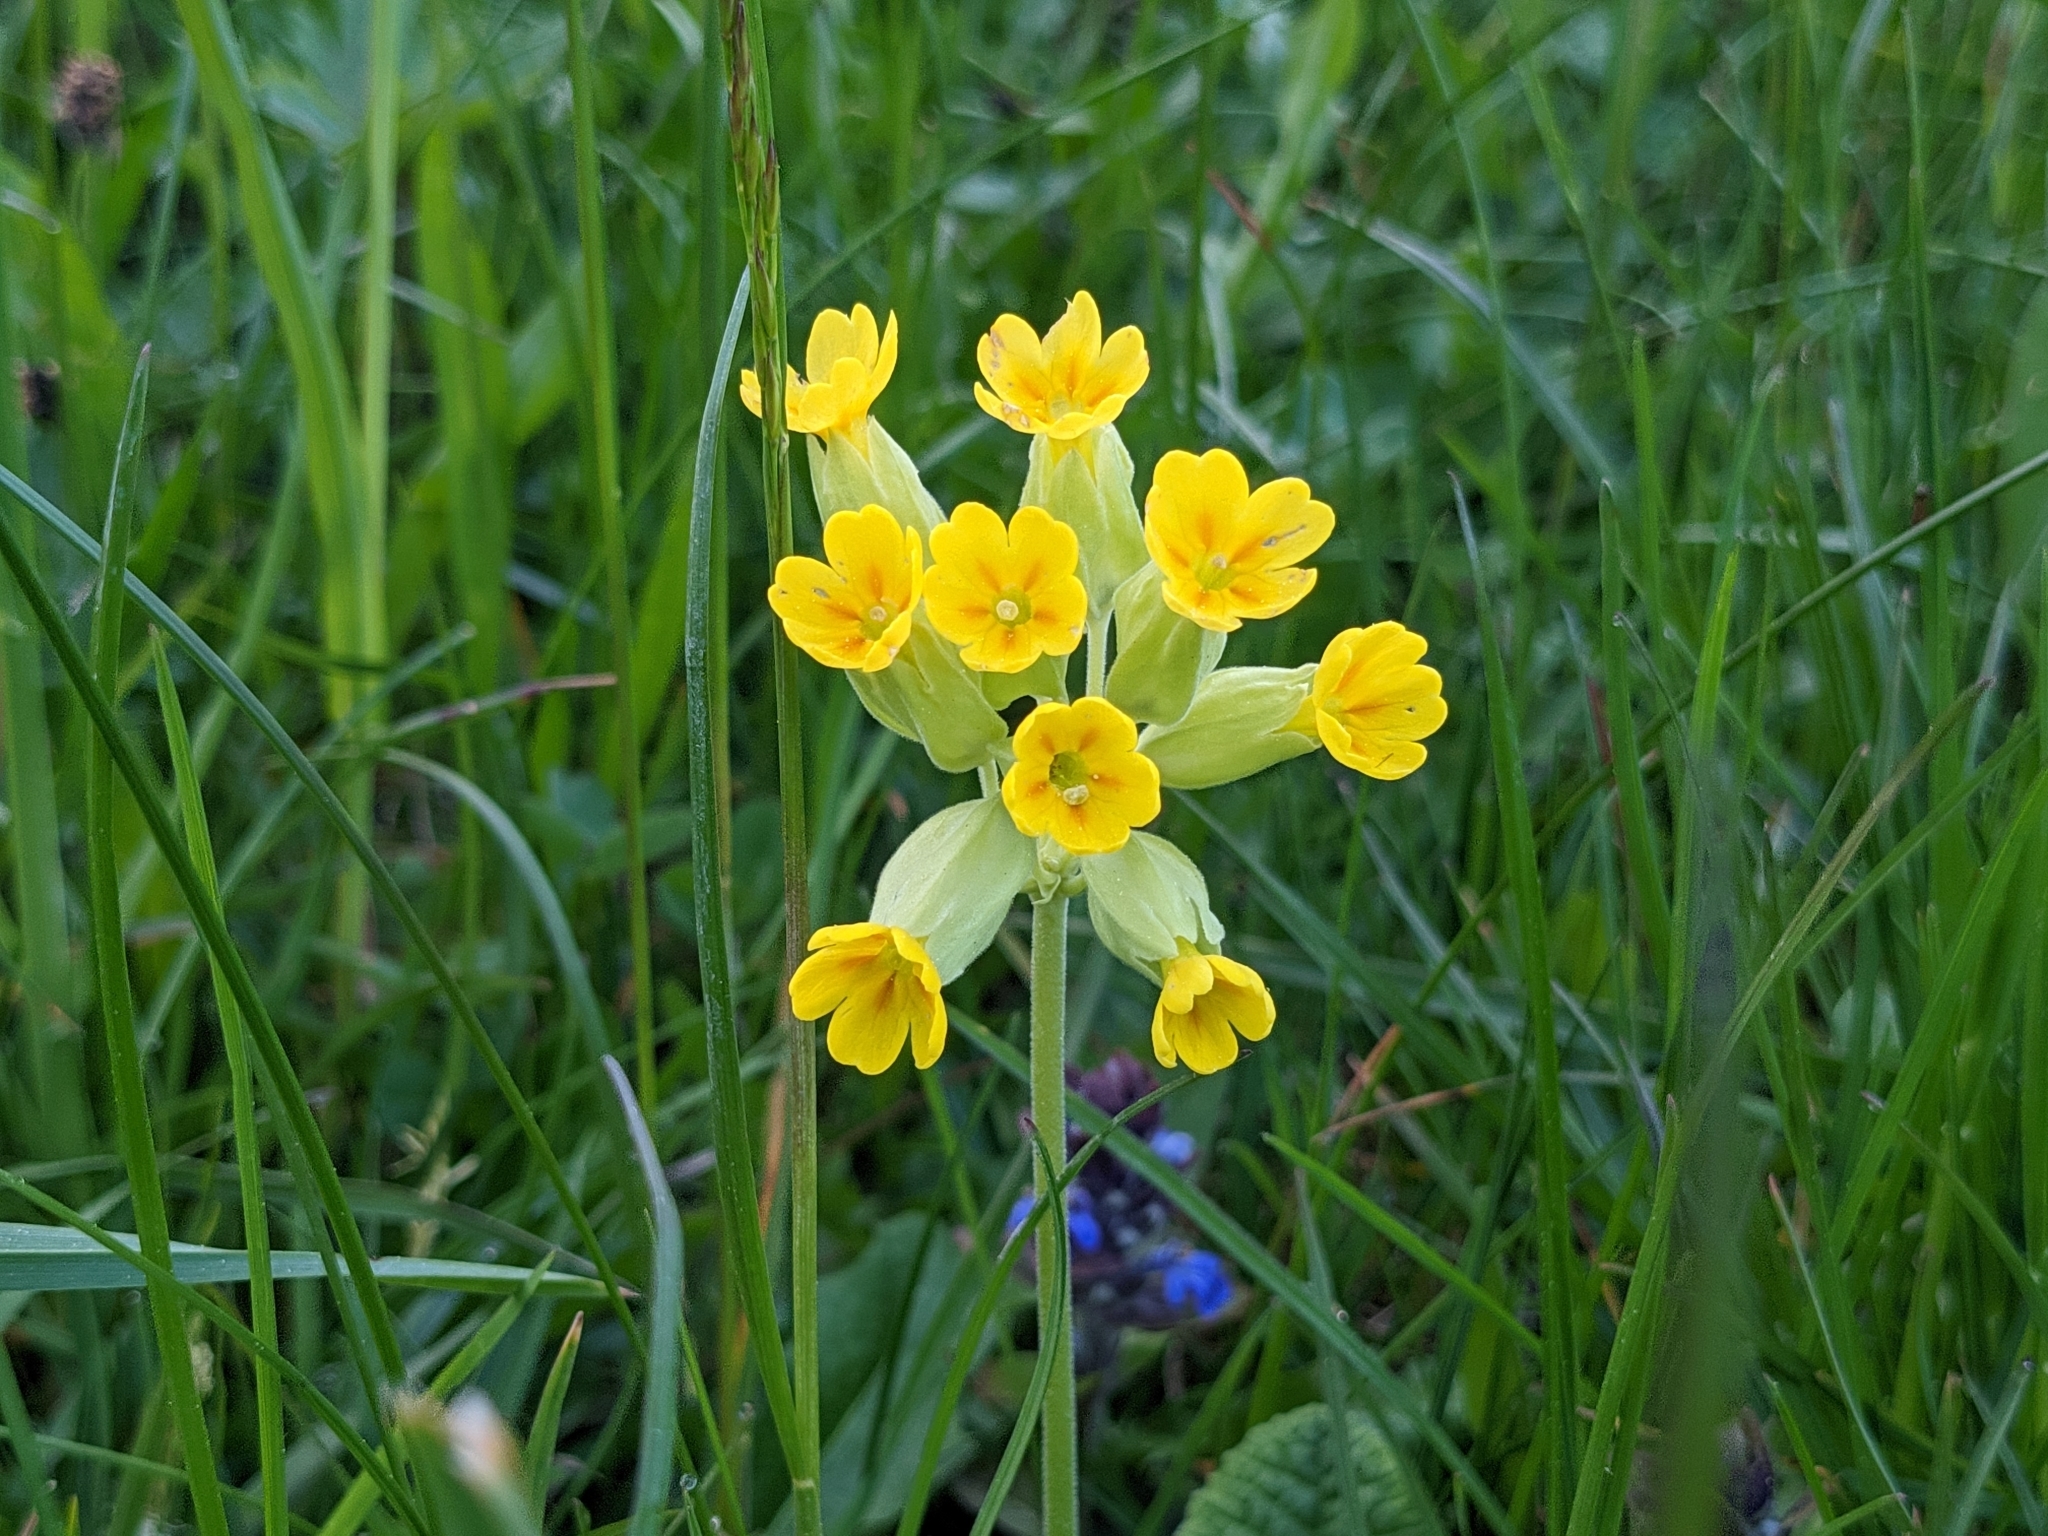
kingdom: Plantae
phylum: Tracheophyta
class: Magnoliopsida
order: Ericales
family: Primulaceae
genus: Primula
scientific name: Primula veris
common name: Cowslip
